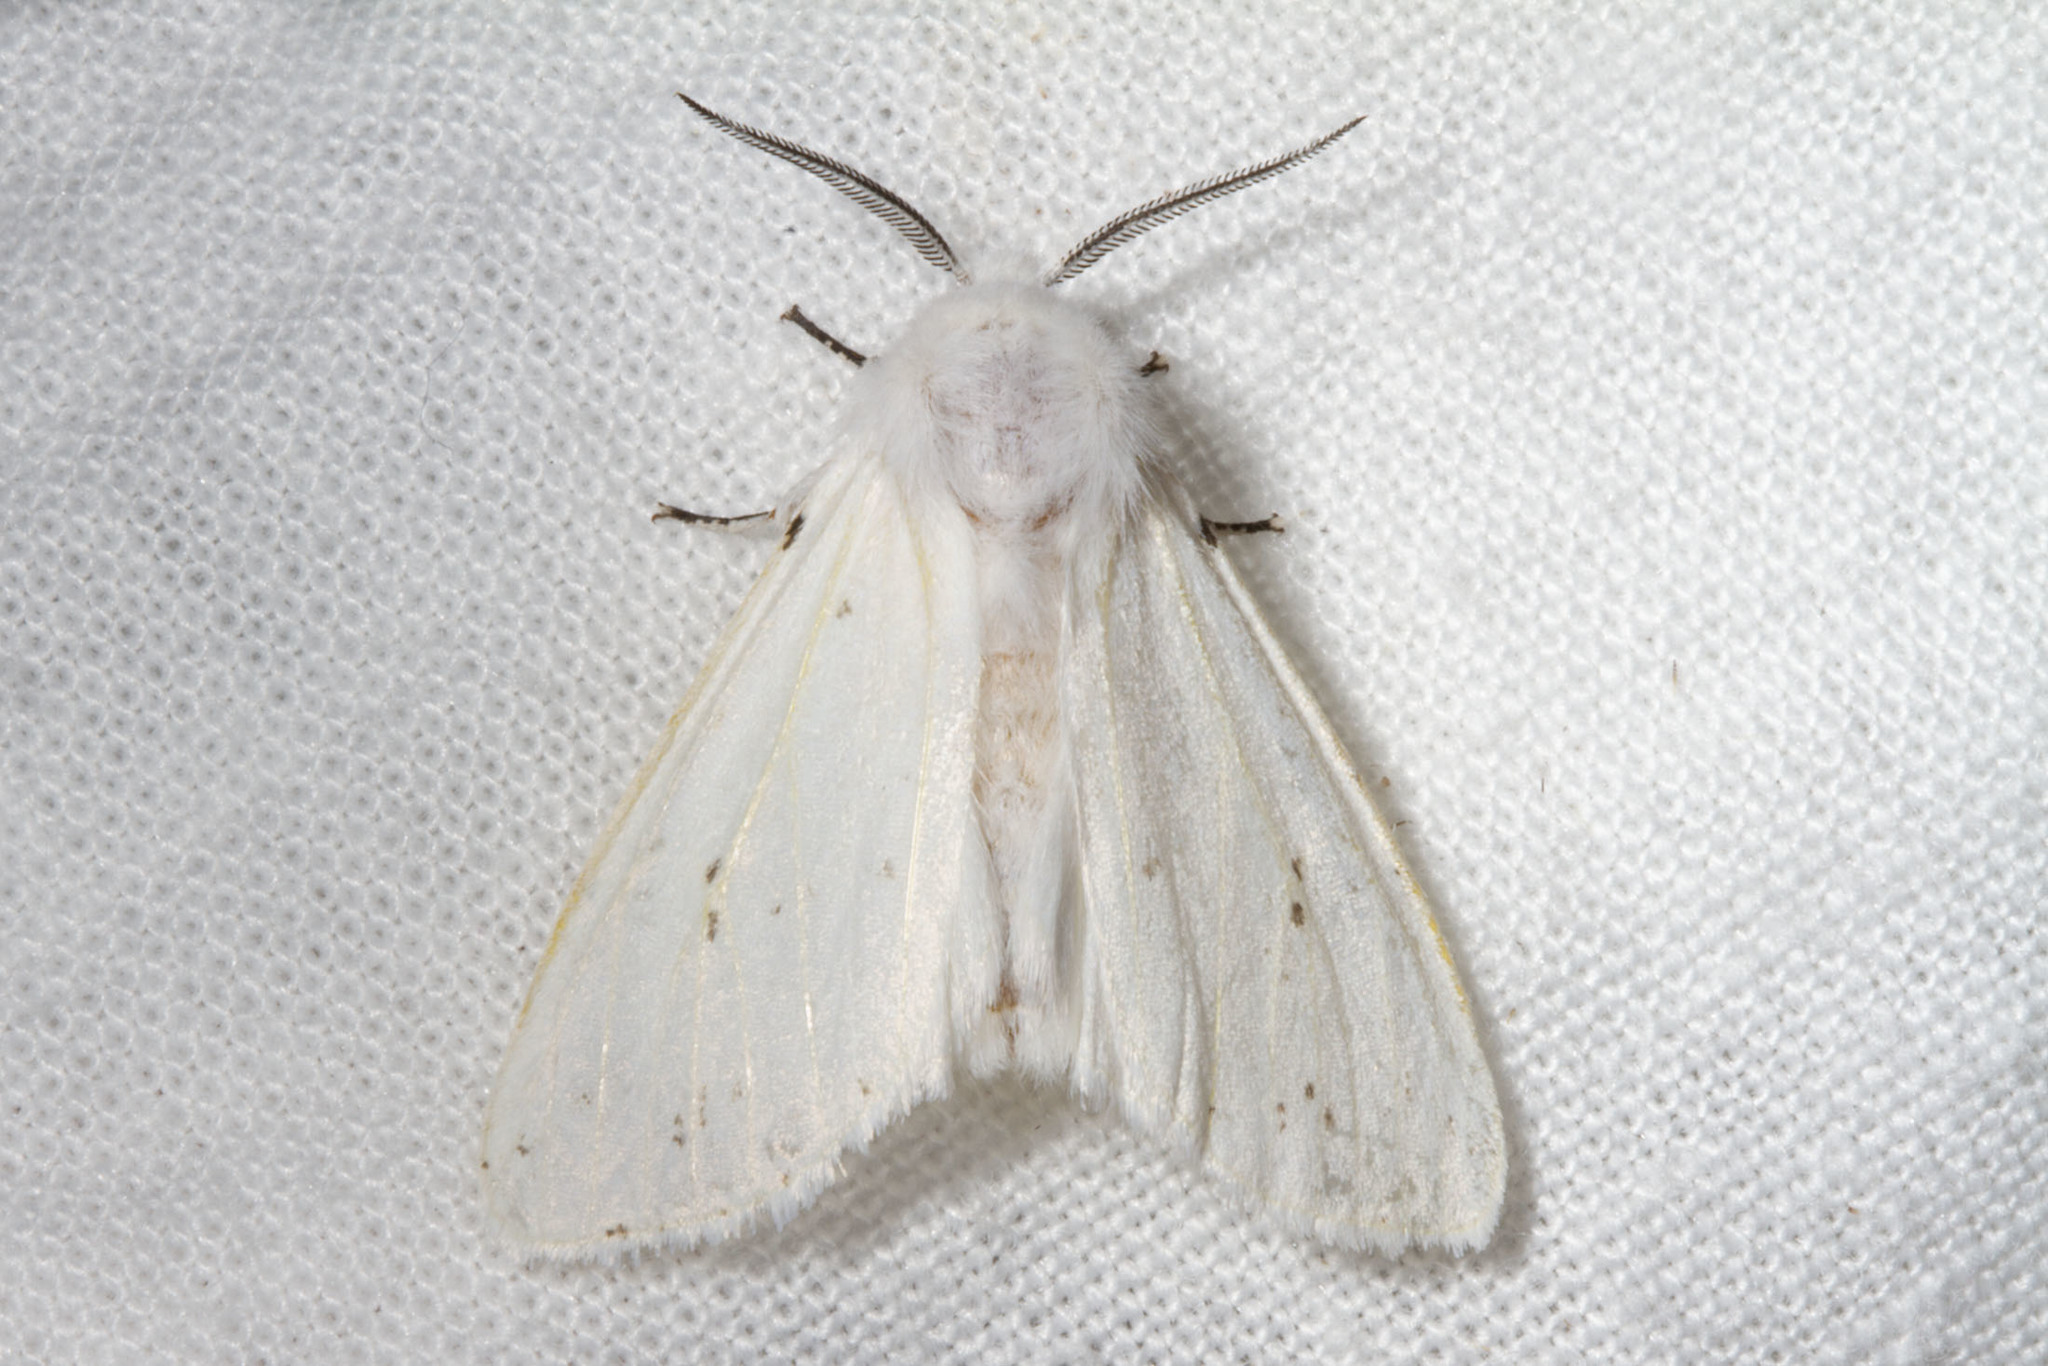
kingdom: Animalia
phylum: Arthropoda
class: Insecta
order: Lepidoptera
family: Erebidae
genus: Spilosoma
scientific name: Spilosoma congrua
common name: Agreeable tiger moth
